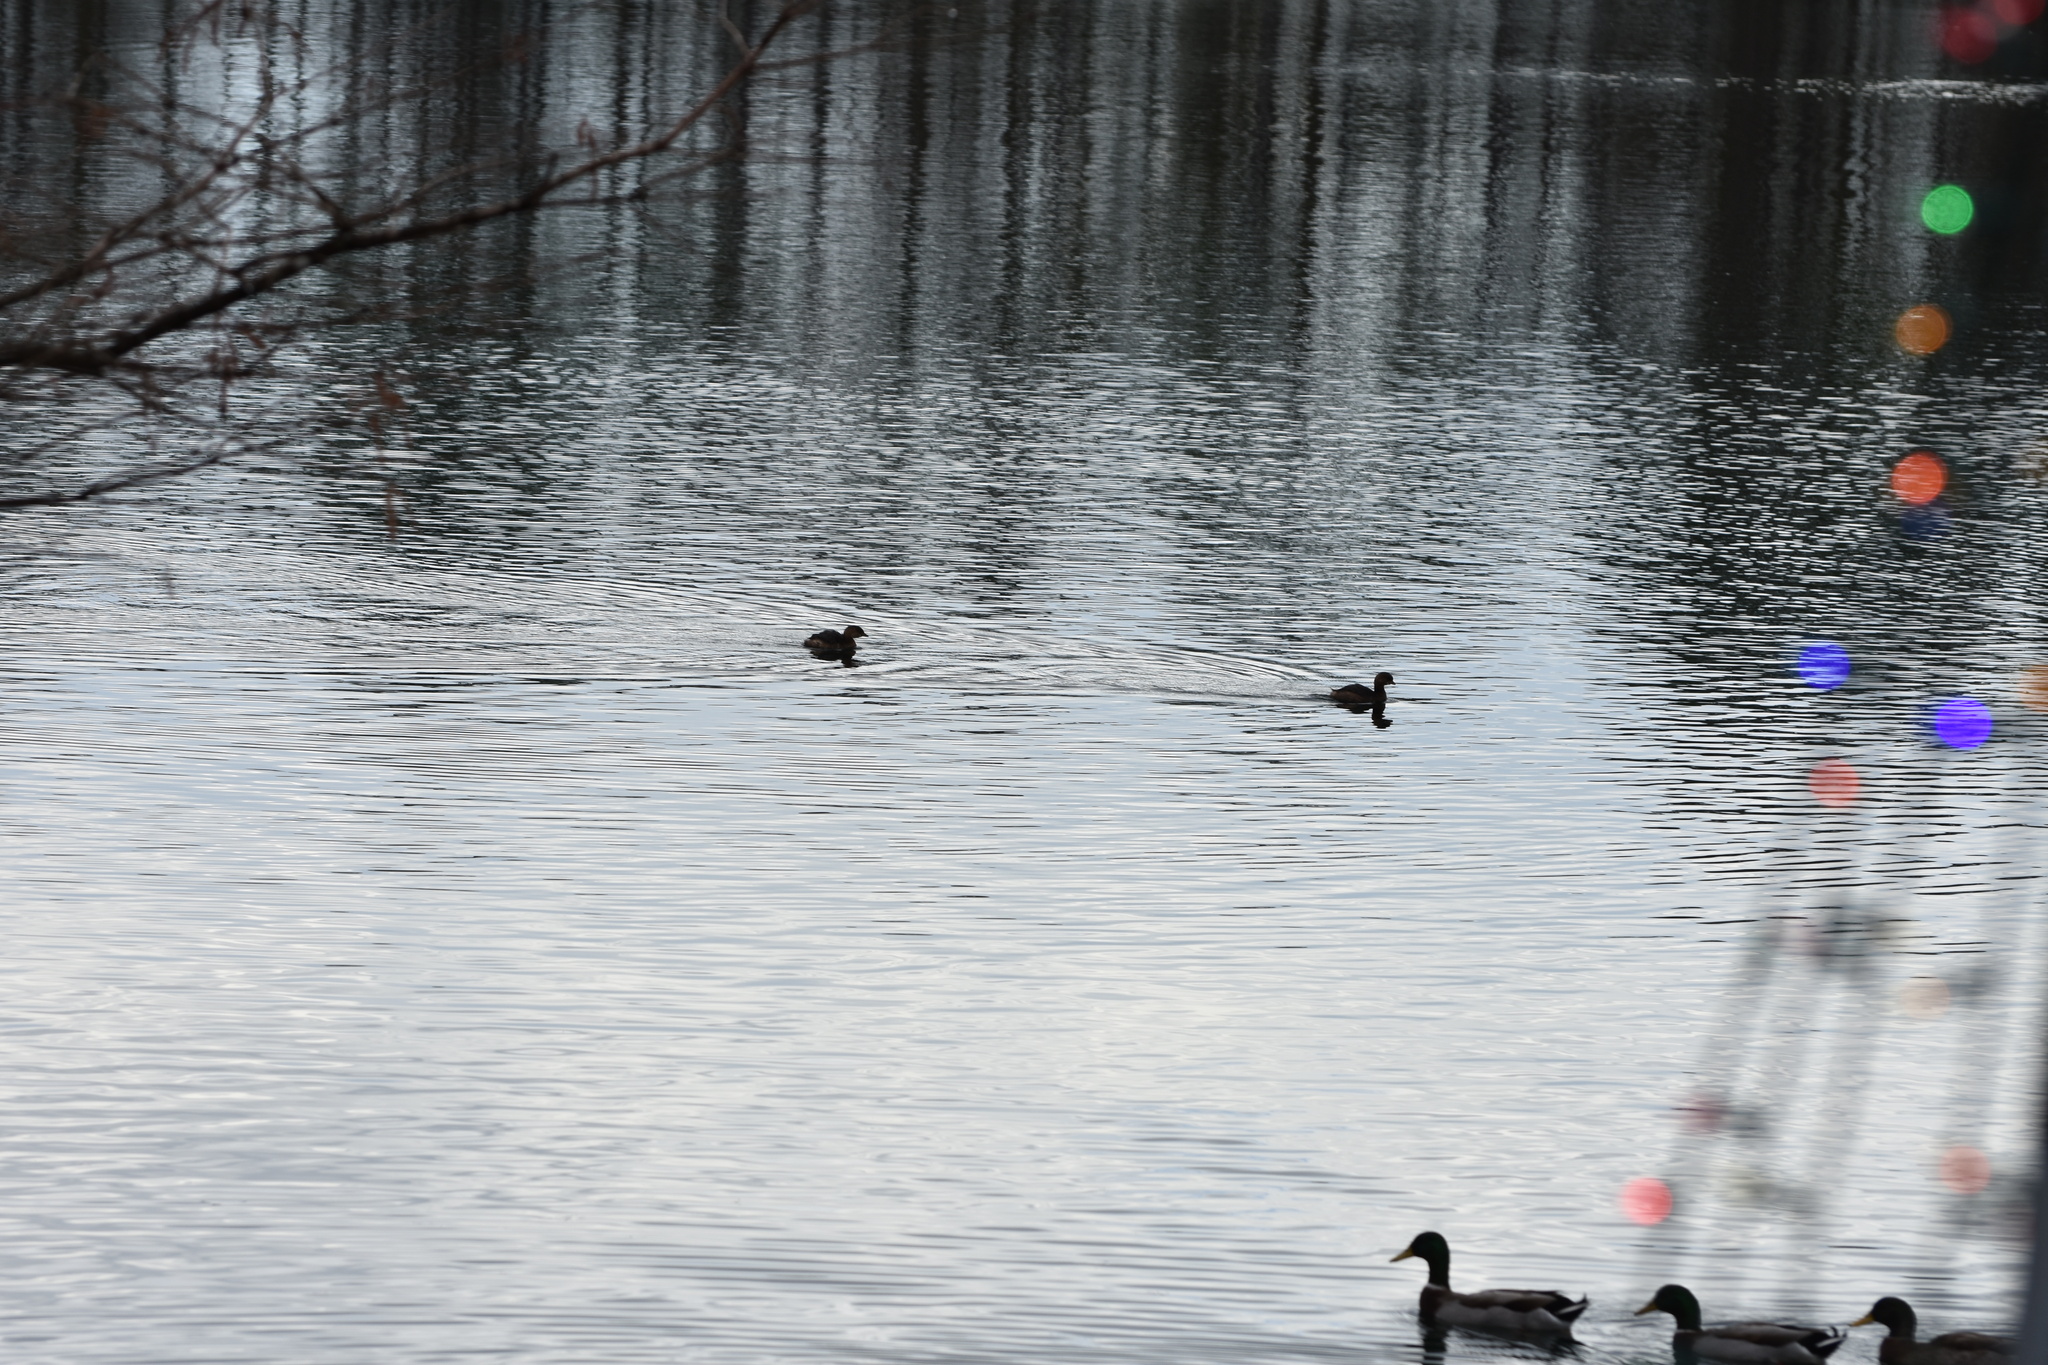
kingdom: Animalia
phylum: Chordata
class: Aves
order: Podicipediformes
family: Podicipedidae
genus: Podilymbus
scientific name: Podilymbus podiceps
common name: Pied-billed grebe
